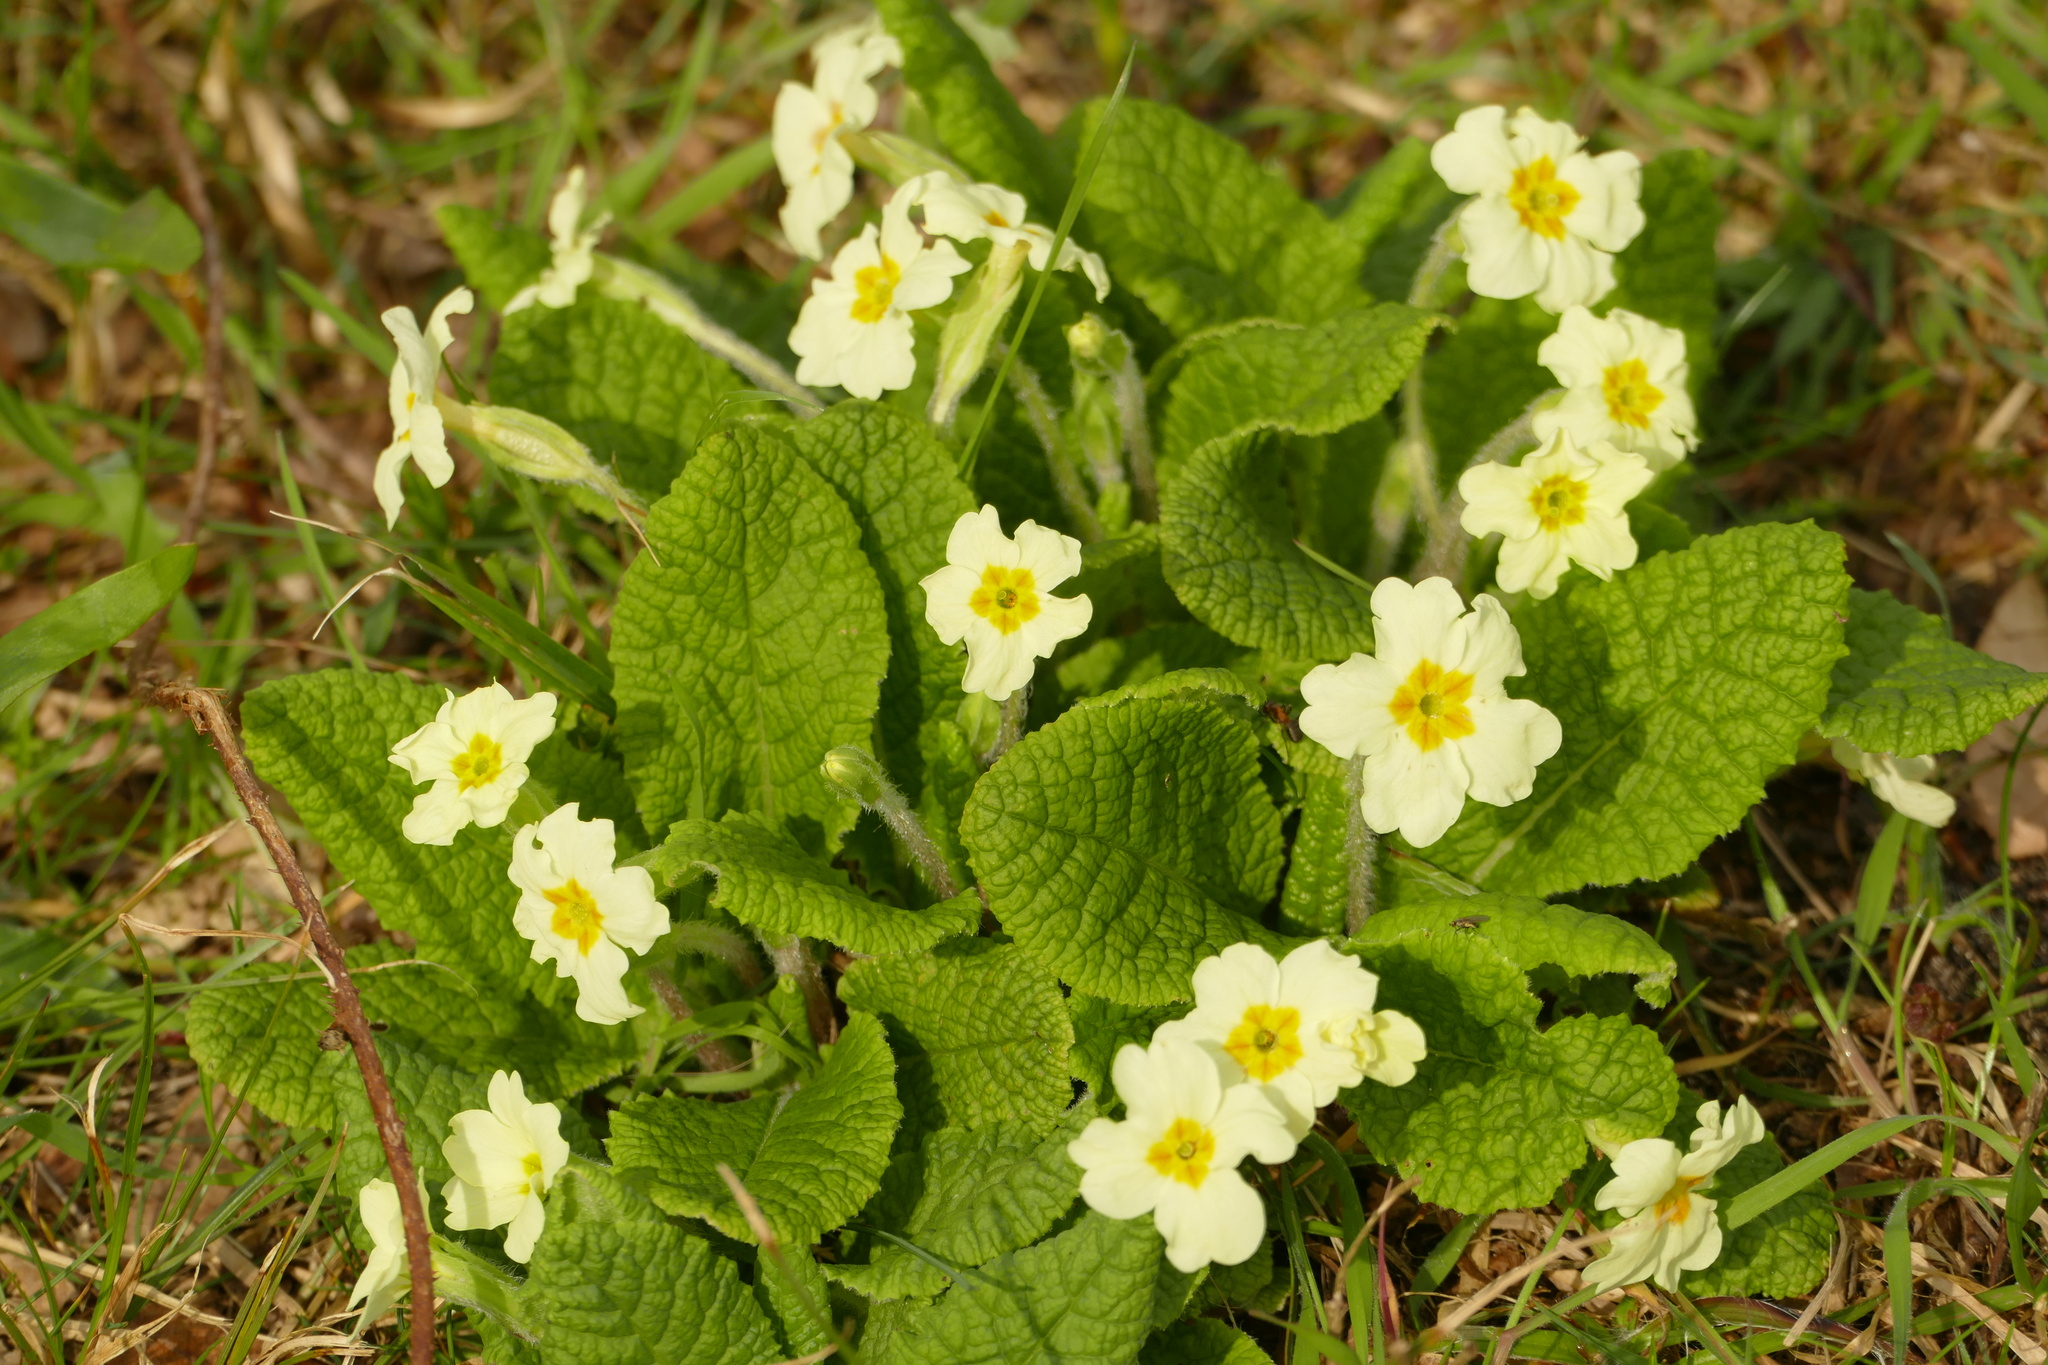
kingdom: Plantae
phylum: Tracheophyta
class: Magnoliopsida
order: Ericales
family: Primulaceae
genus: Primula
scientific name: Primula vulgaris
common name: Primrose
